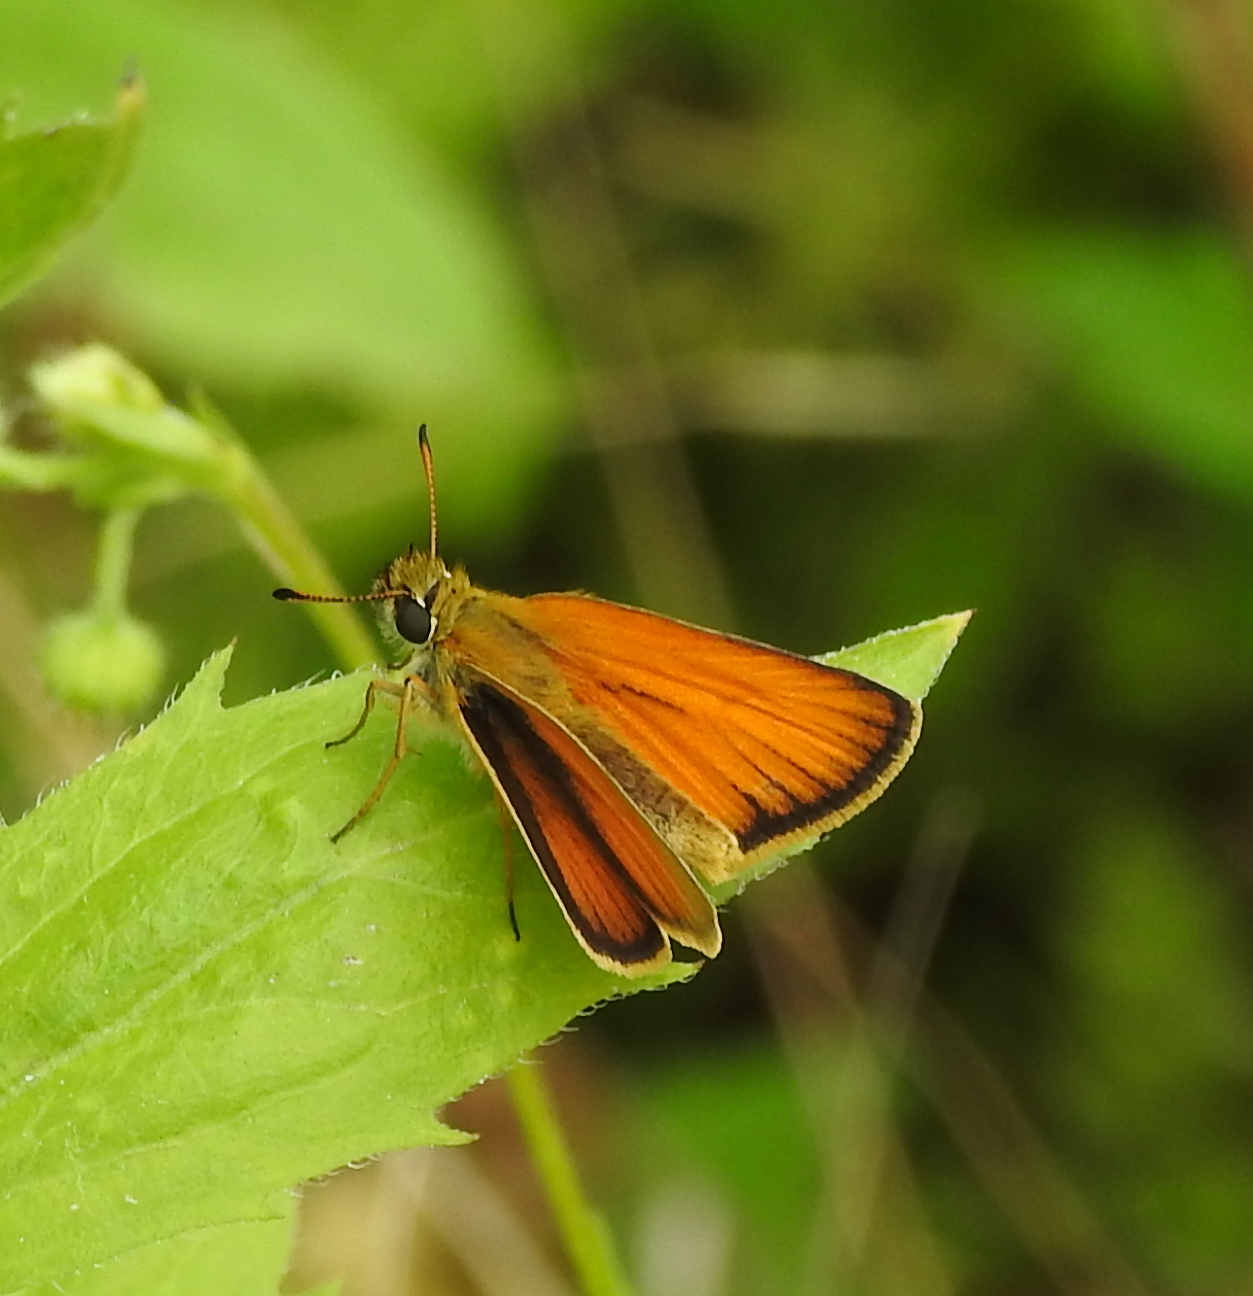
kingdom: Animalia
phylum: Arthropoda
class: Insecta
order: Lepidoptera
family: Hesperiidae
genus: Thymelicus
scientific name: Thymelicus lineola
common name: Essex skipper
